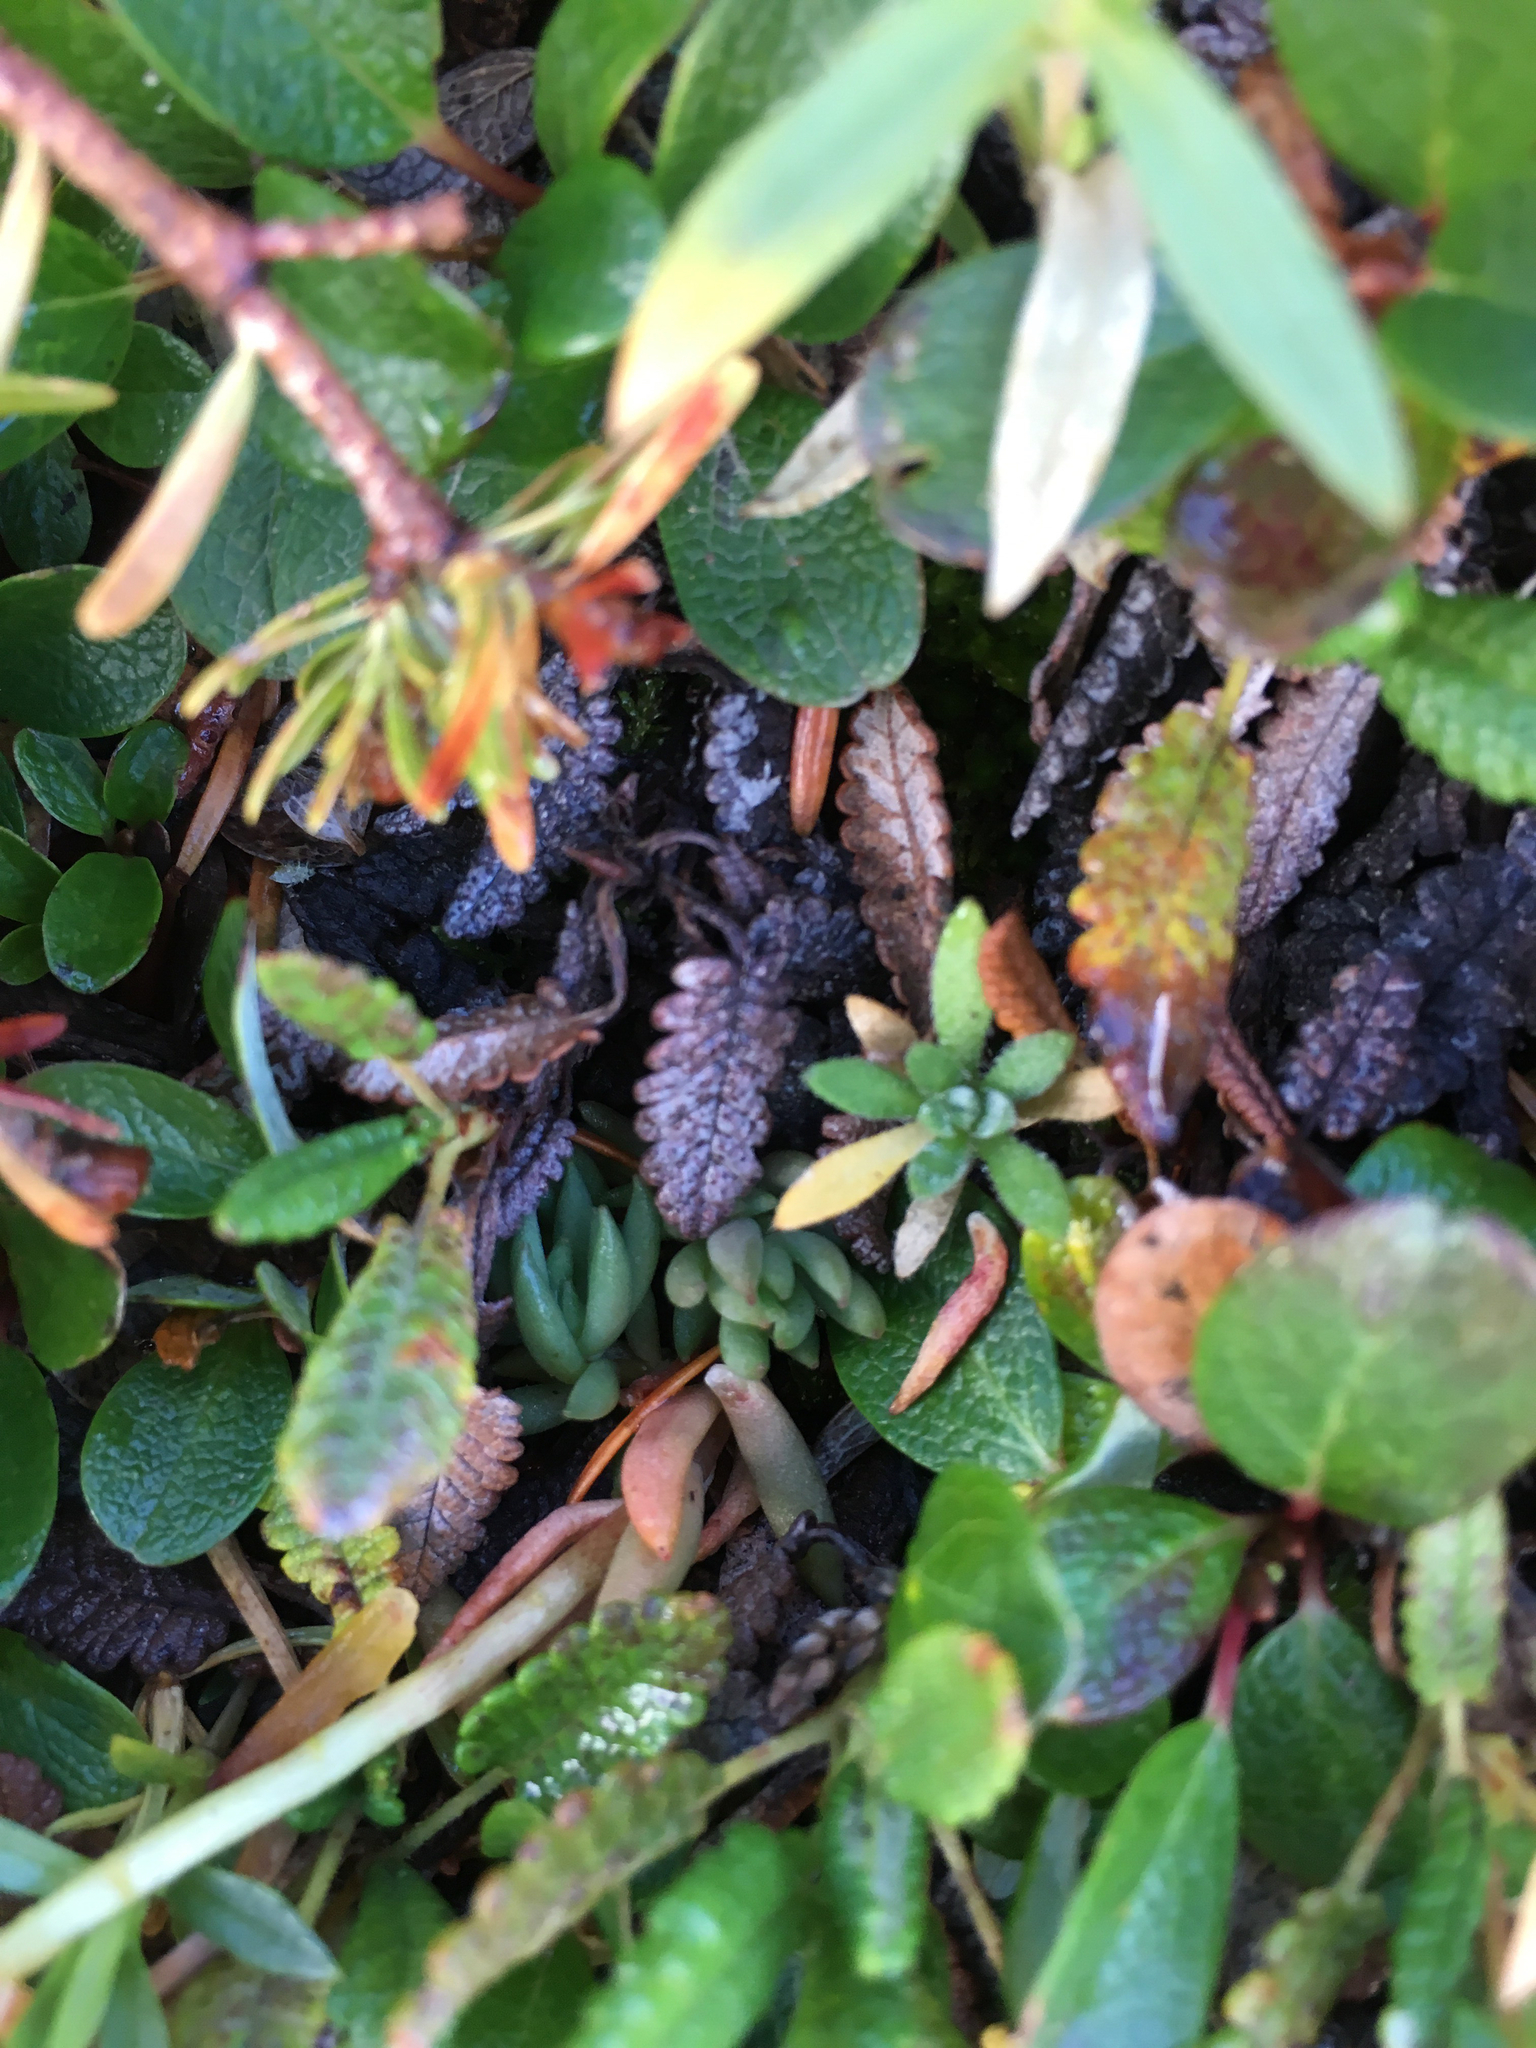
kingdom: Plantae
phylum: Tracheophyta
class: Magnoliopsida
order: Saxifragales
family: Crassulaceae
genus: Sedum
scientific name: Sedum lanceolatum
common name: Common stonecrop
